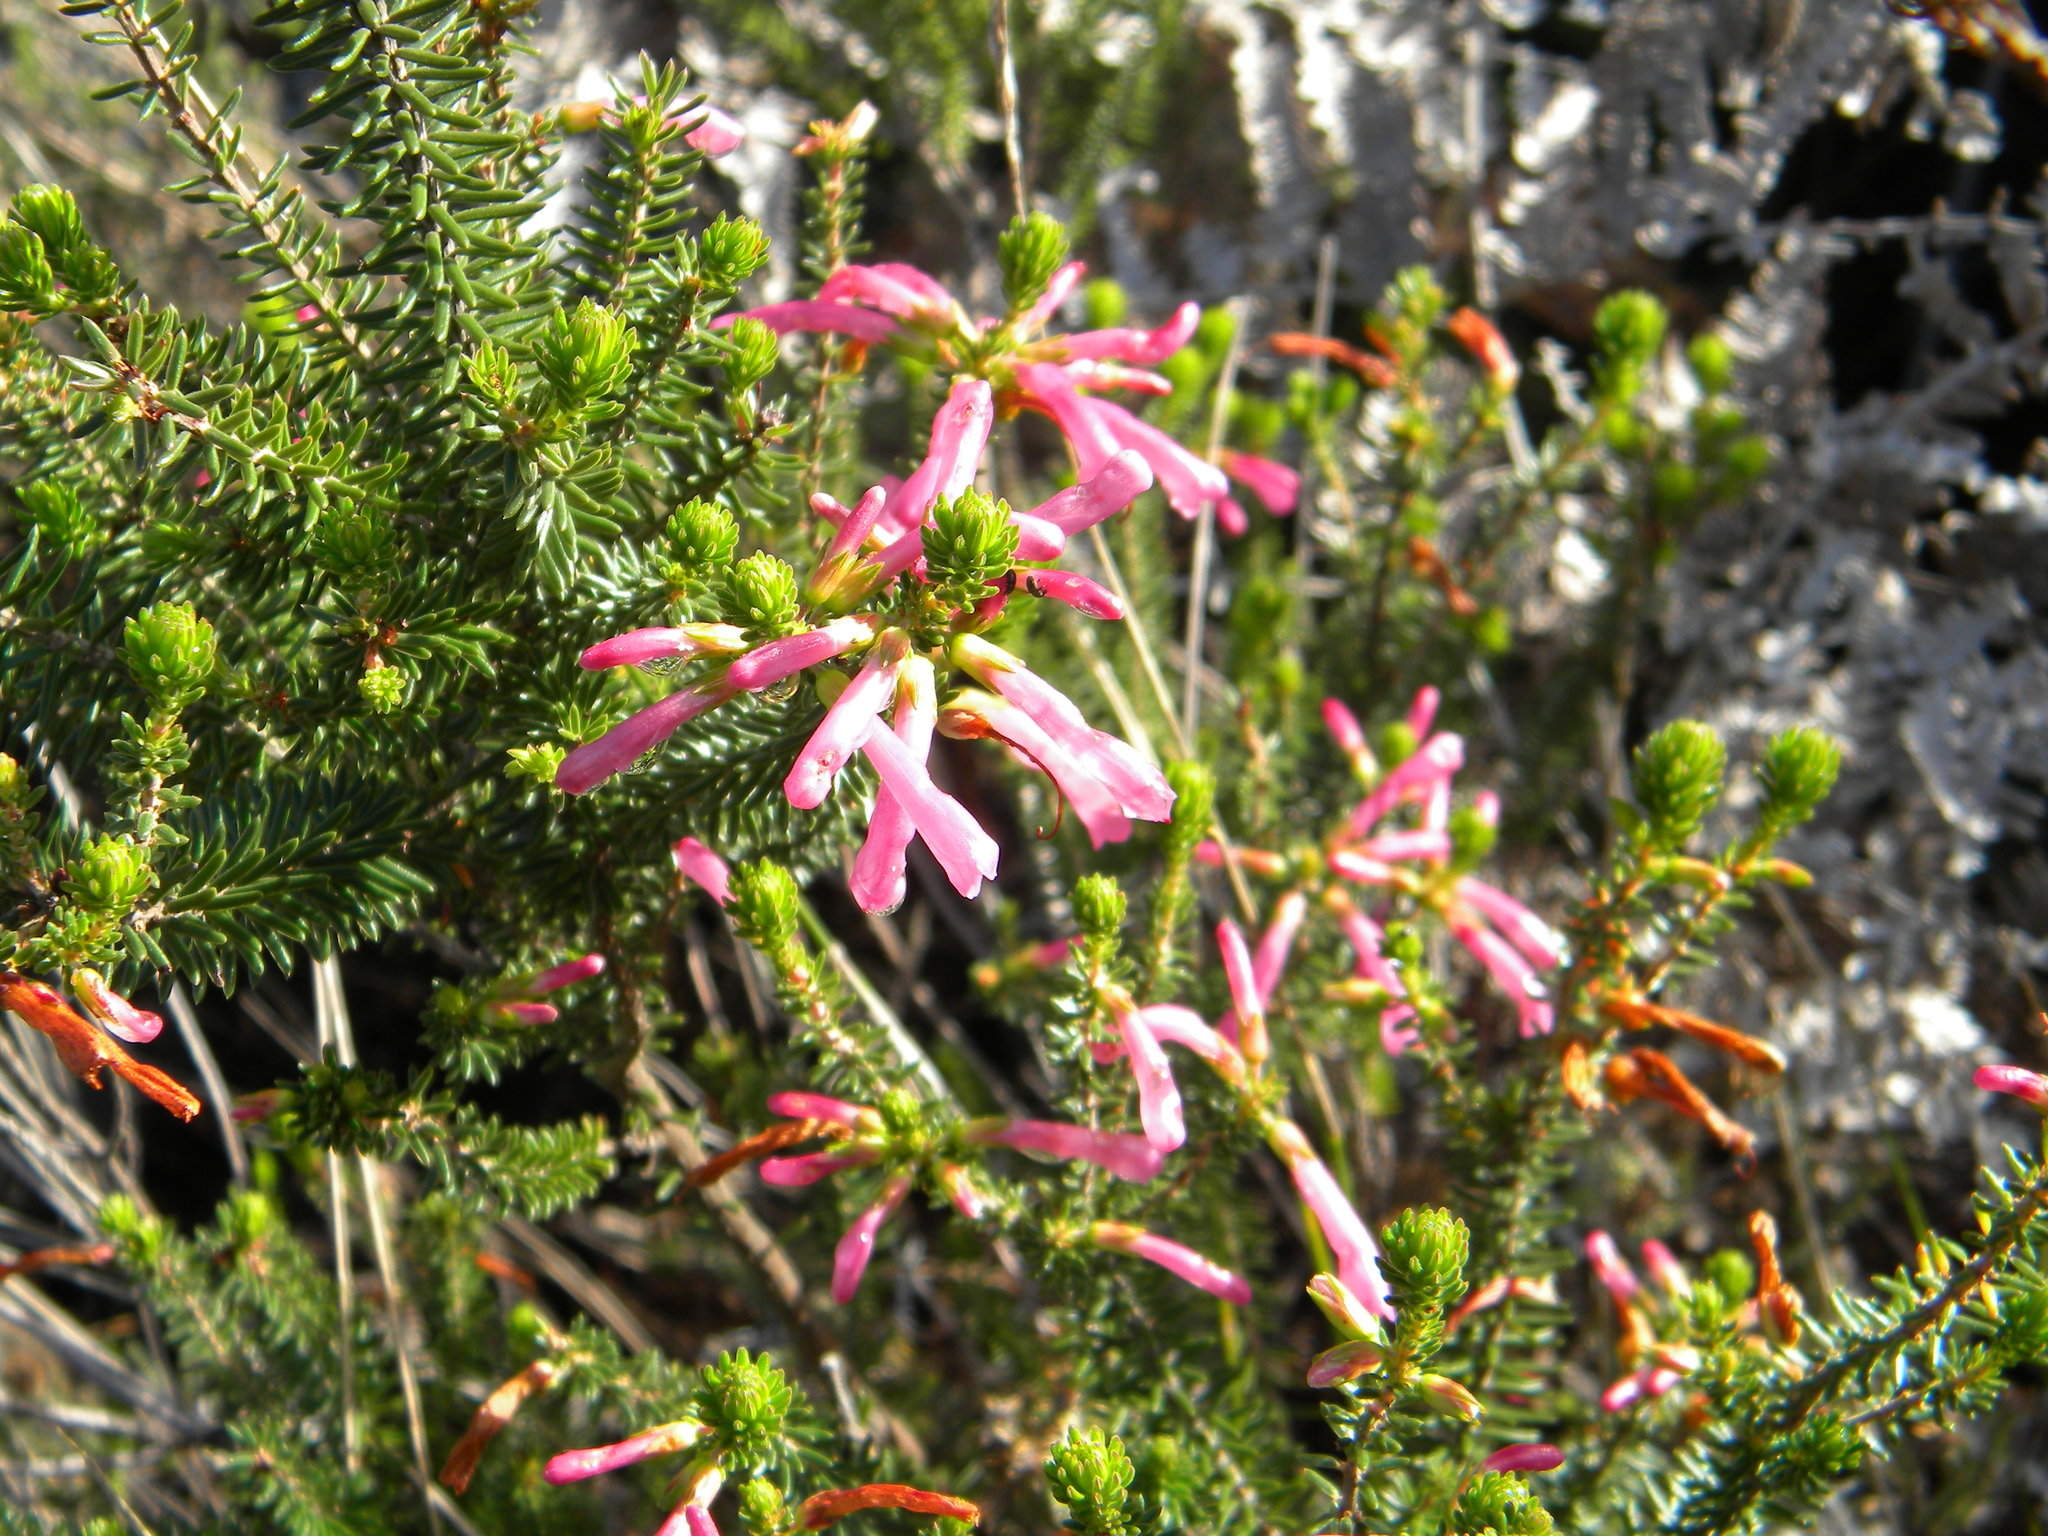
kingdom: Plantae
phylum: Tracheophyta
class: Magnoliopsida
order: Ericales
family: Ericaceae
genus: Erica
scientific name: Erica abietina
